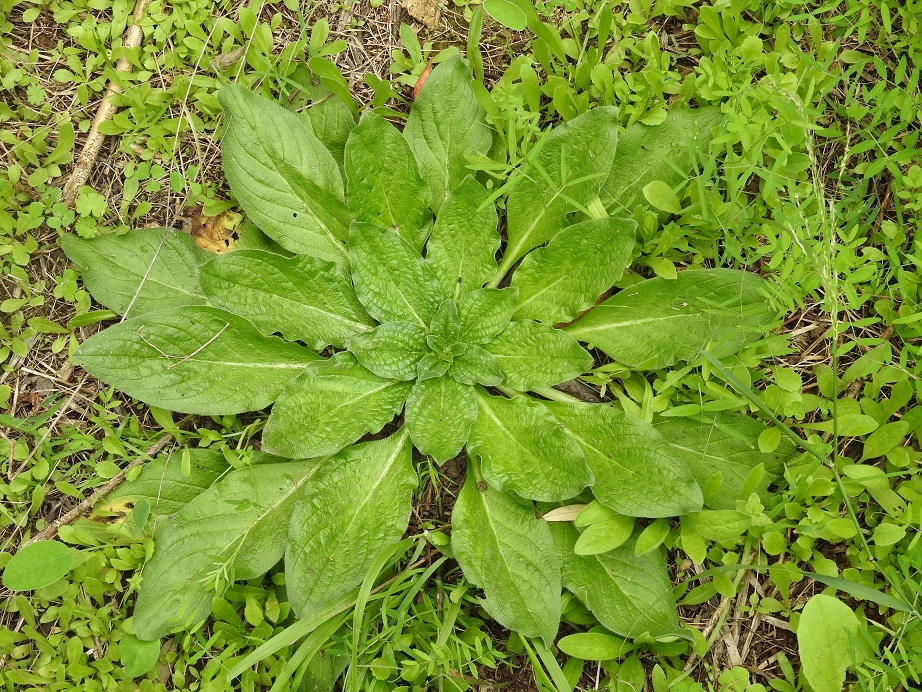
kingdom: Plantae
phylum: Tracheophyta
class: Magnoliopsida
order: Boraginales
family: Boraginaceae
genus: Echium
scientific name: Echium plantagineum
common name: Purple viper's-bugloss
